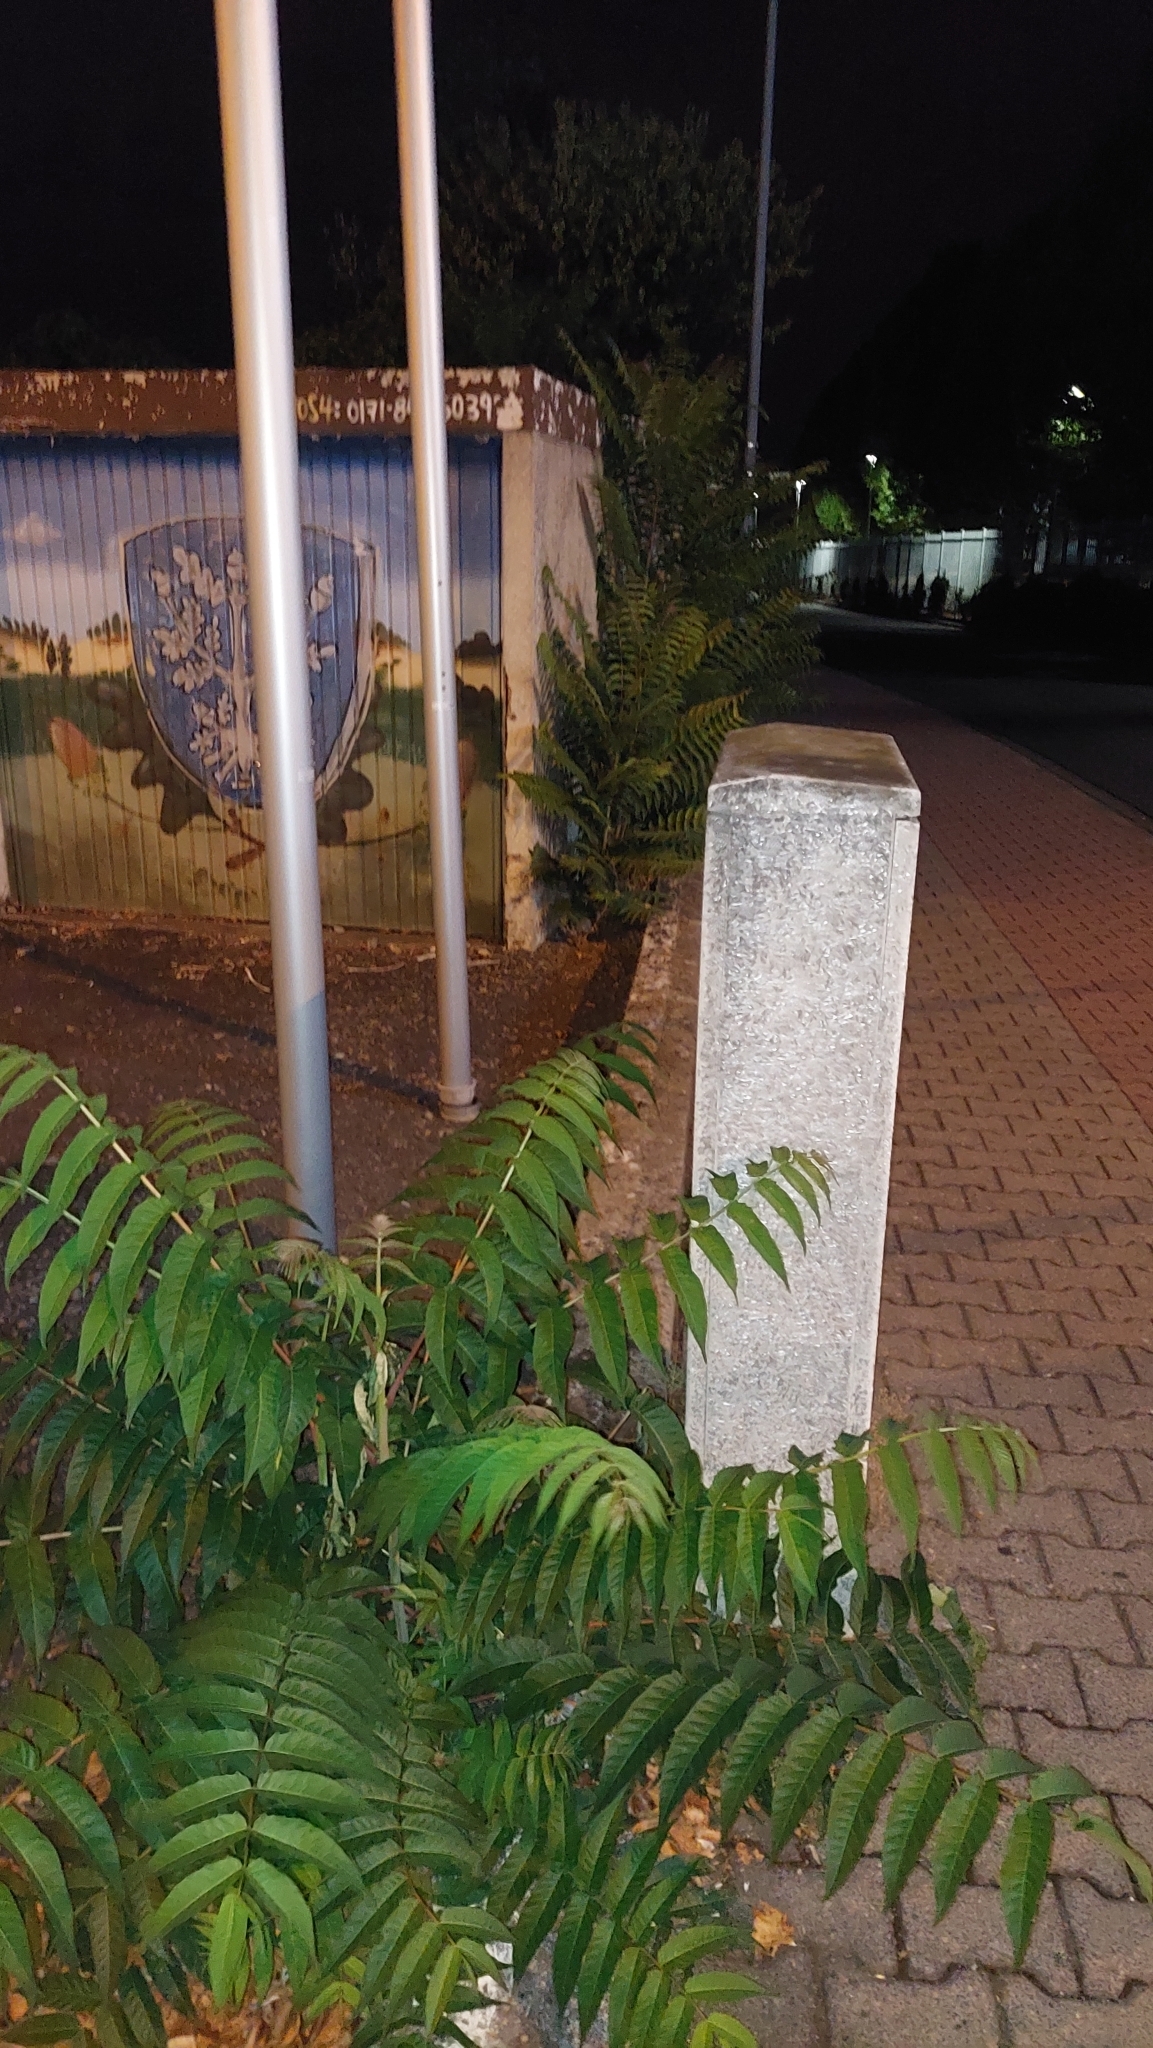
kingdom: Plantae
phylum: Tracheophyta
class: Magnoliopsida
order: Sapindales
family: Simaroubaceae
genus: Ailanthus
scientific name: Ailanthus altissima
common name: Tree-of-heaven
